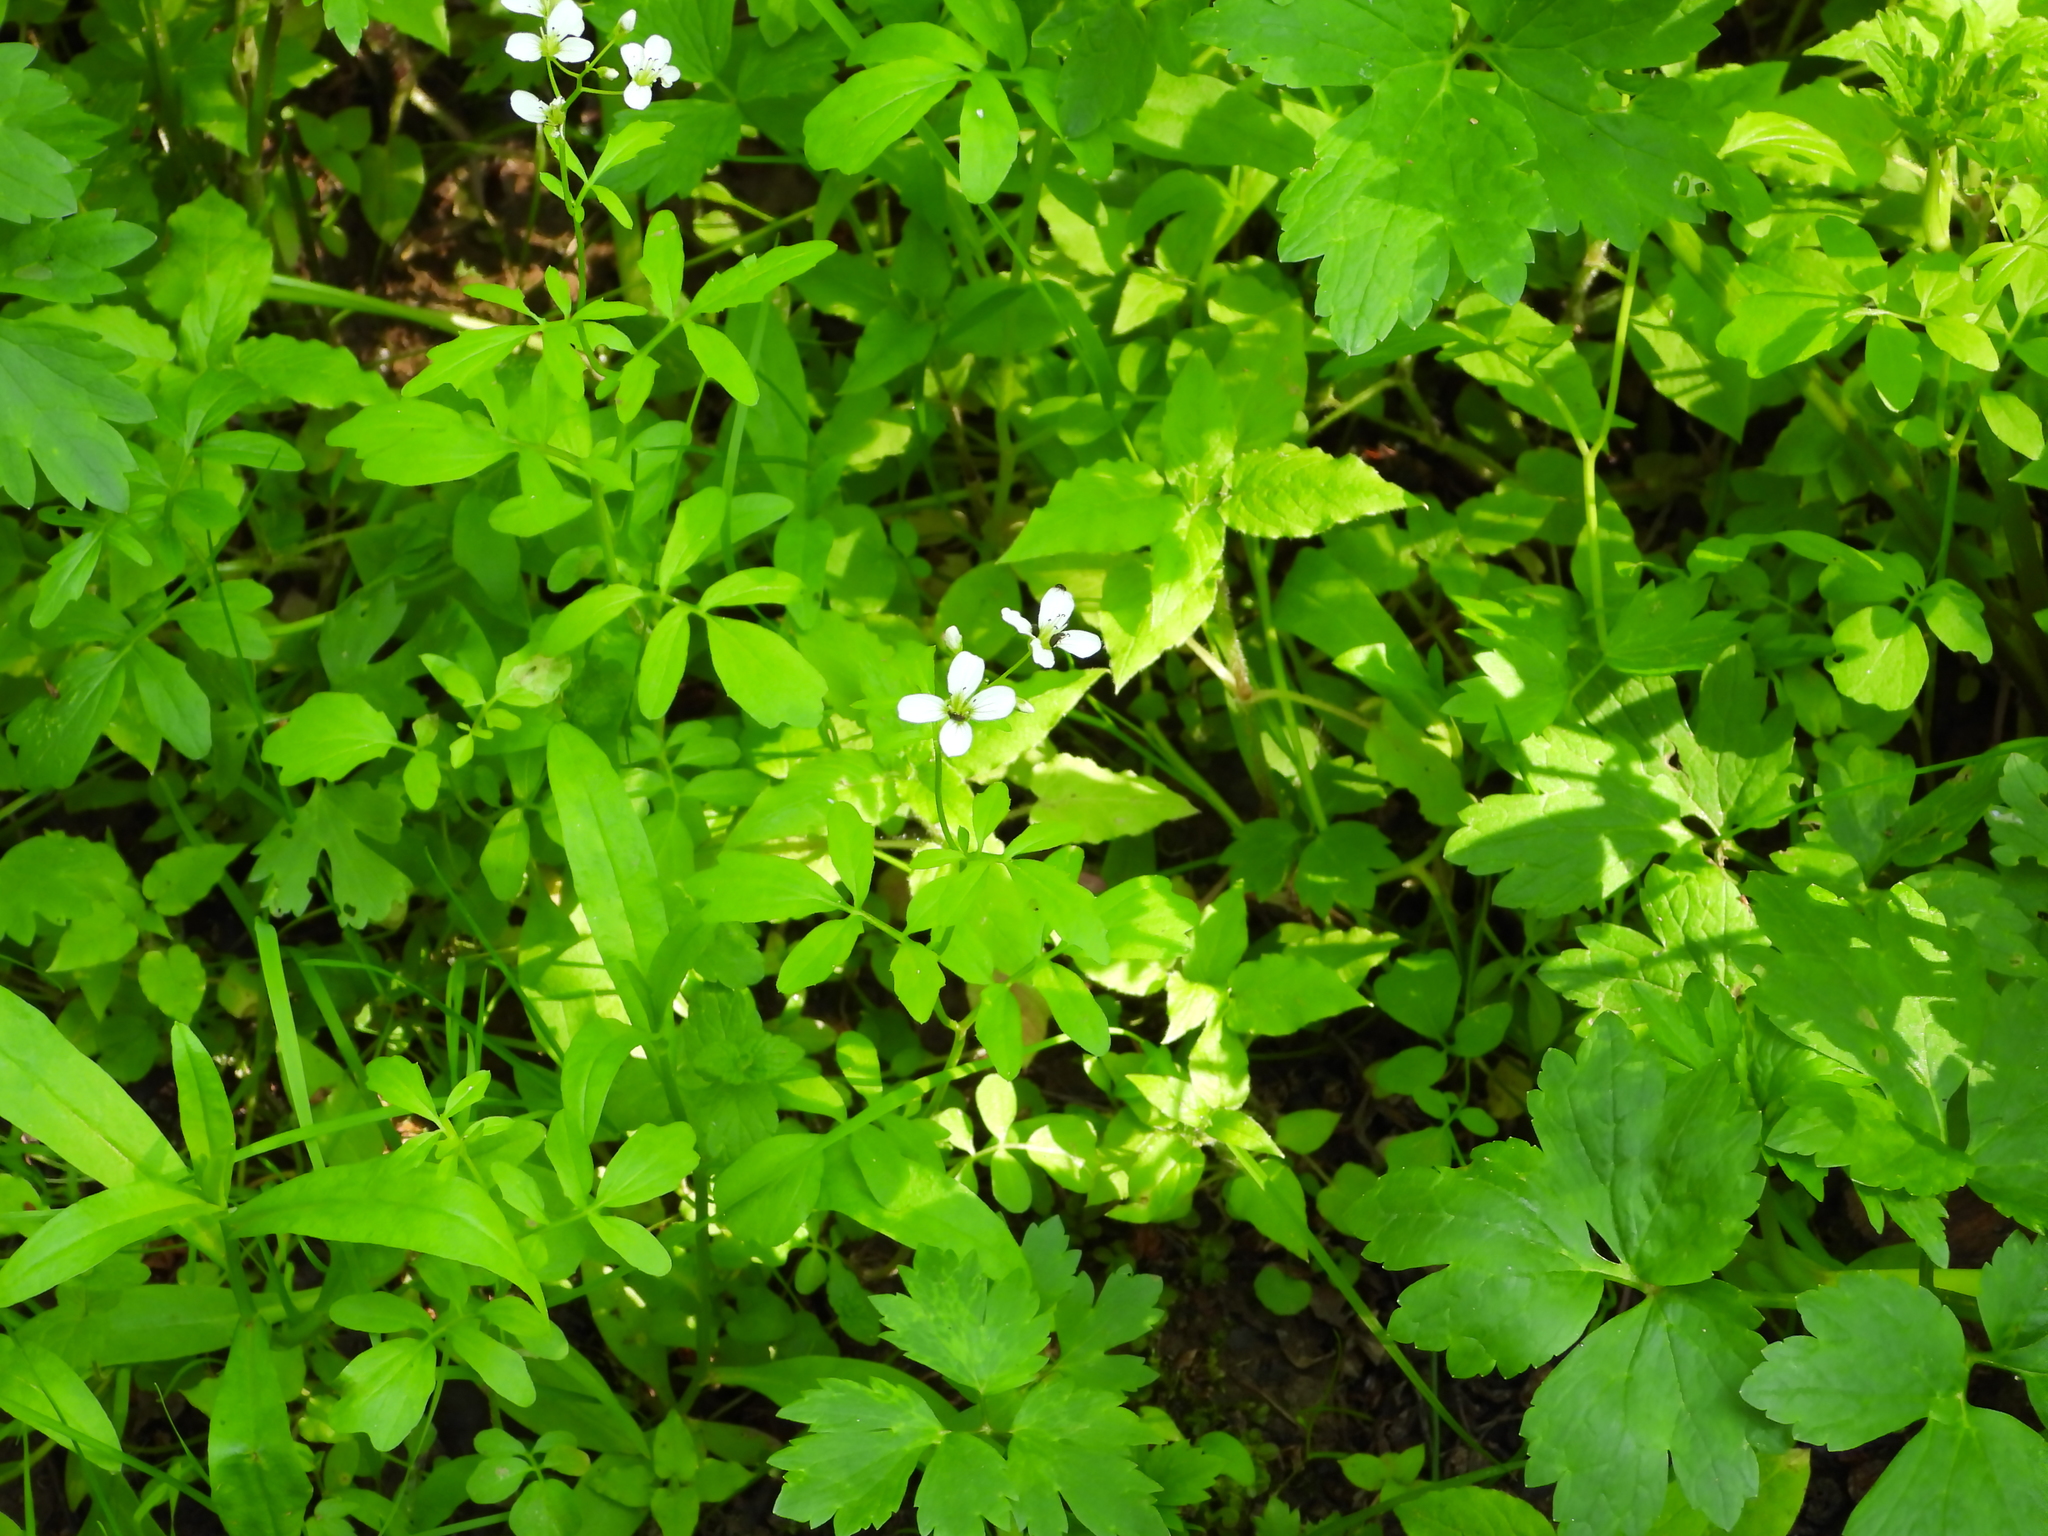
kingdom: Plantae
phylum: Tracheophyta
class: Magnoliopsida
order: Brassicales
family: Brassicaceae
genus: Cardamine
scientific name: Cardamine amara
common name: Large bitter-cress
